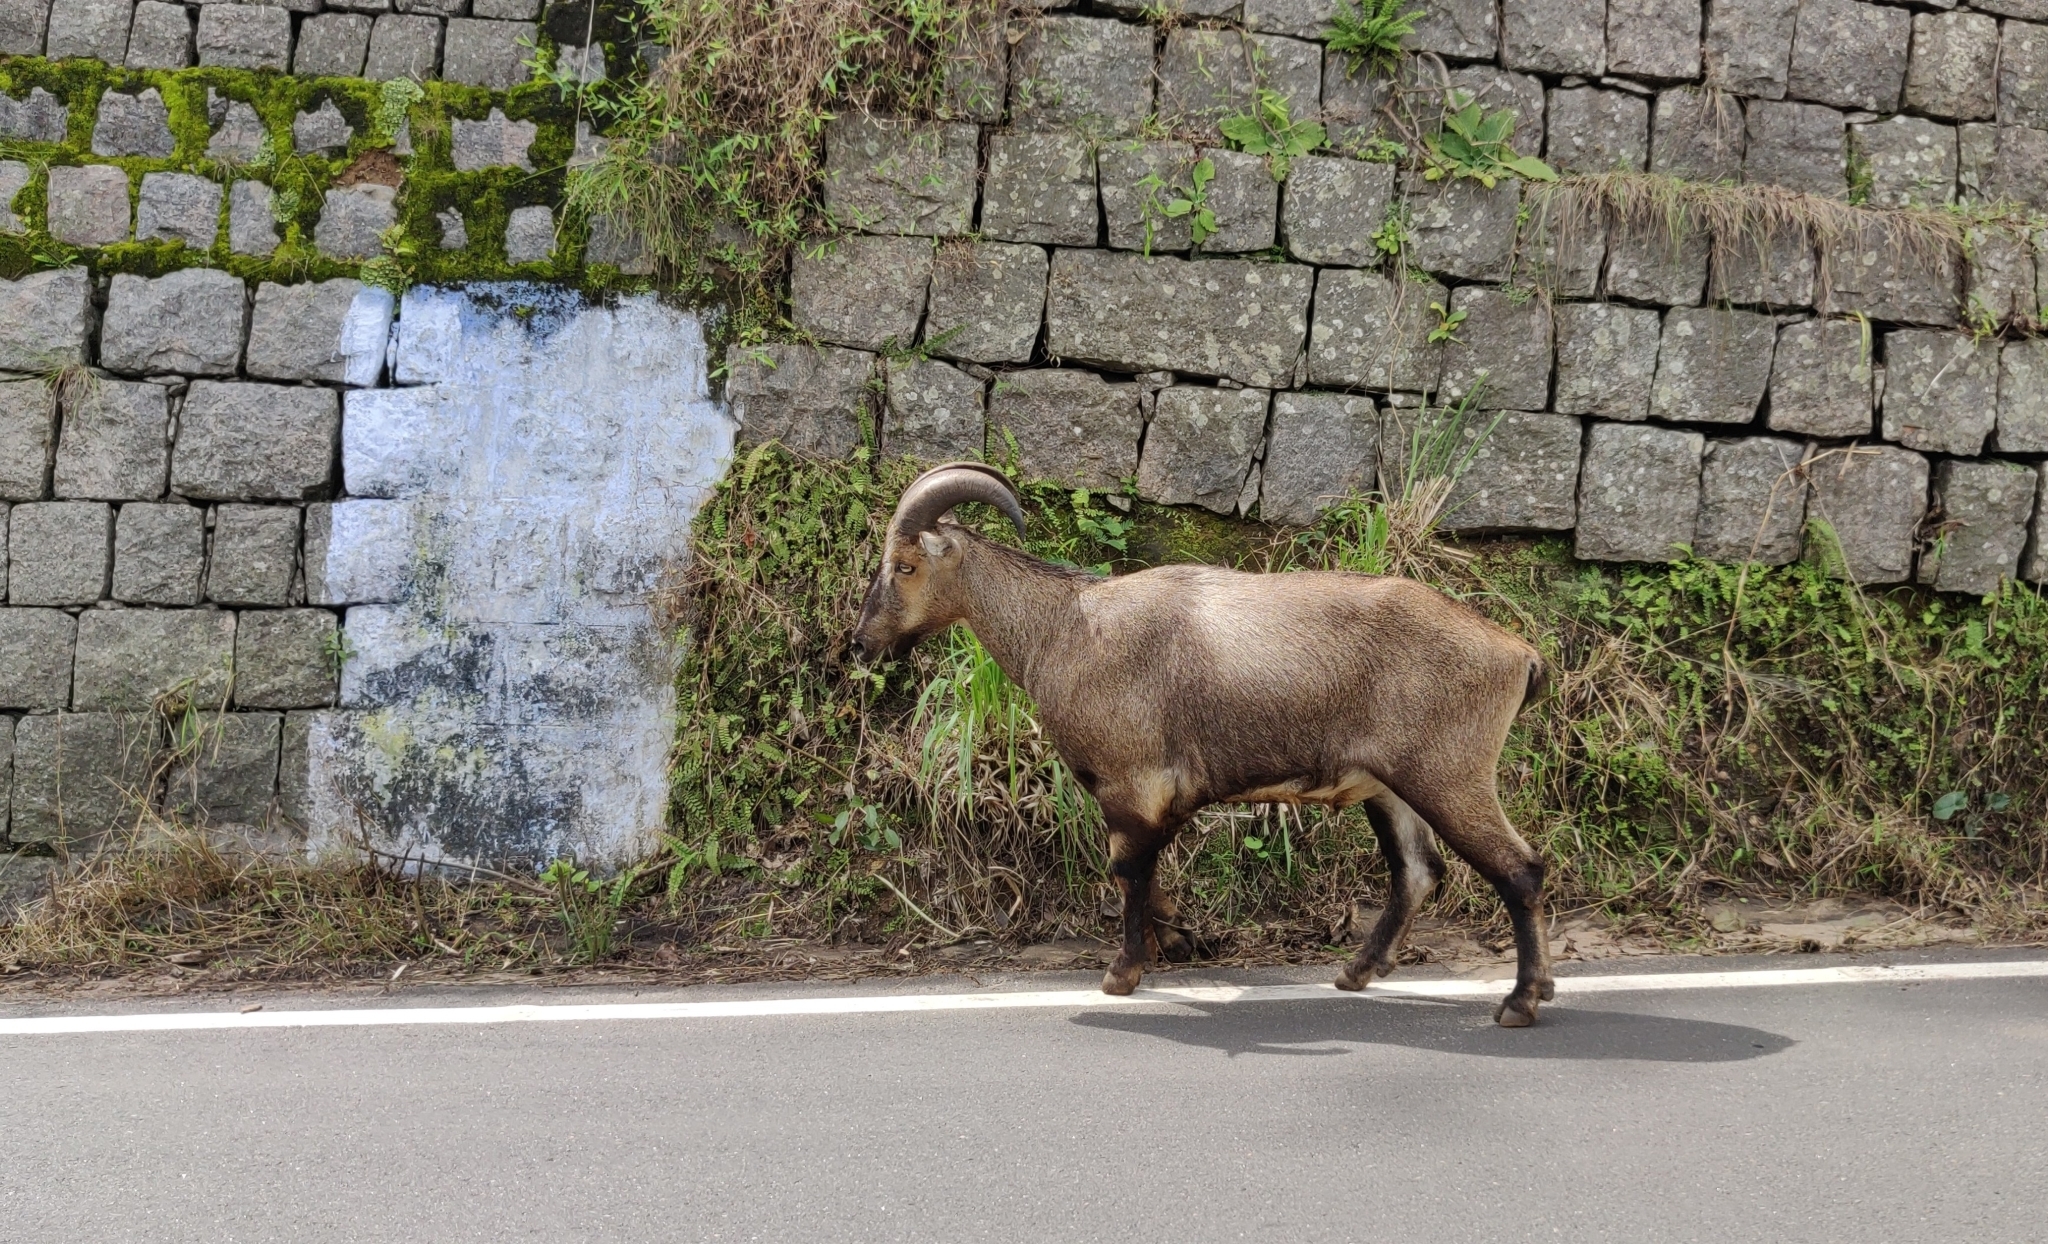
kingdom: Animalia
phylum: Chordata
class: Mammalia
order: Artiodactyla
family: Bovidae
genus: Hemitragus
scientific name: Hemitragus hylocrius
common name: Nilgiri tahr
